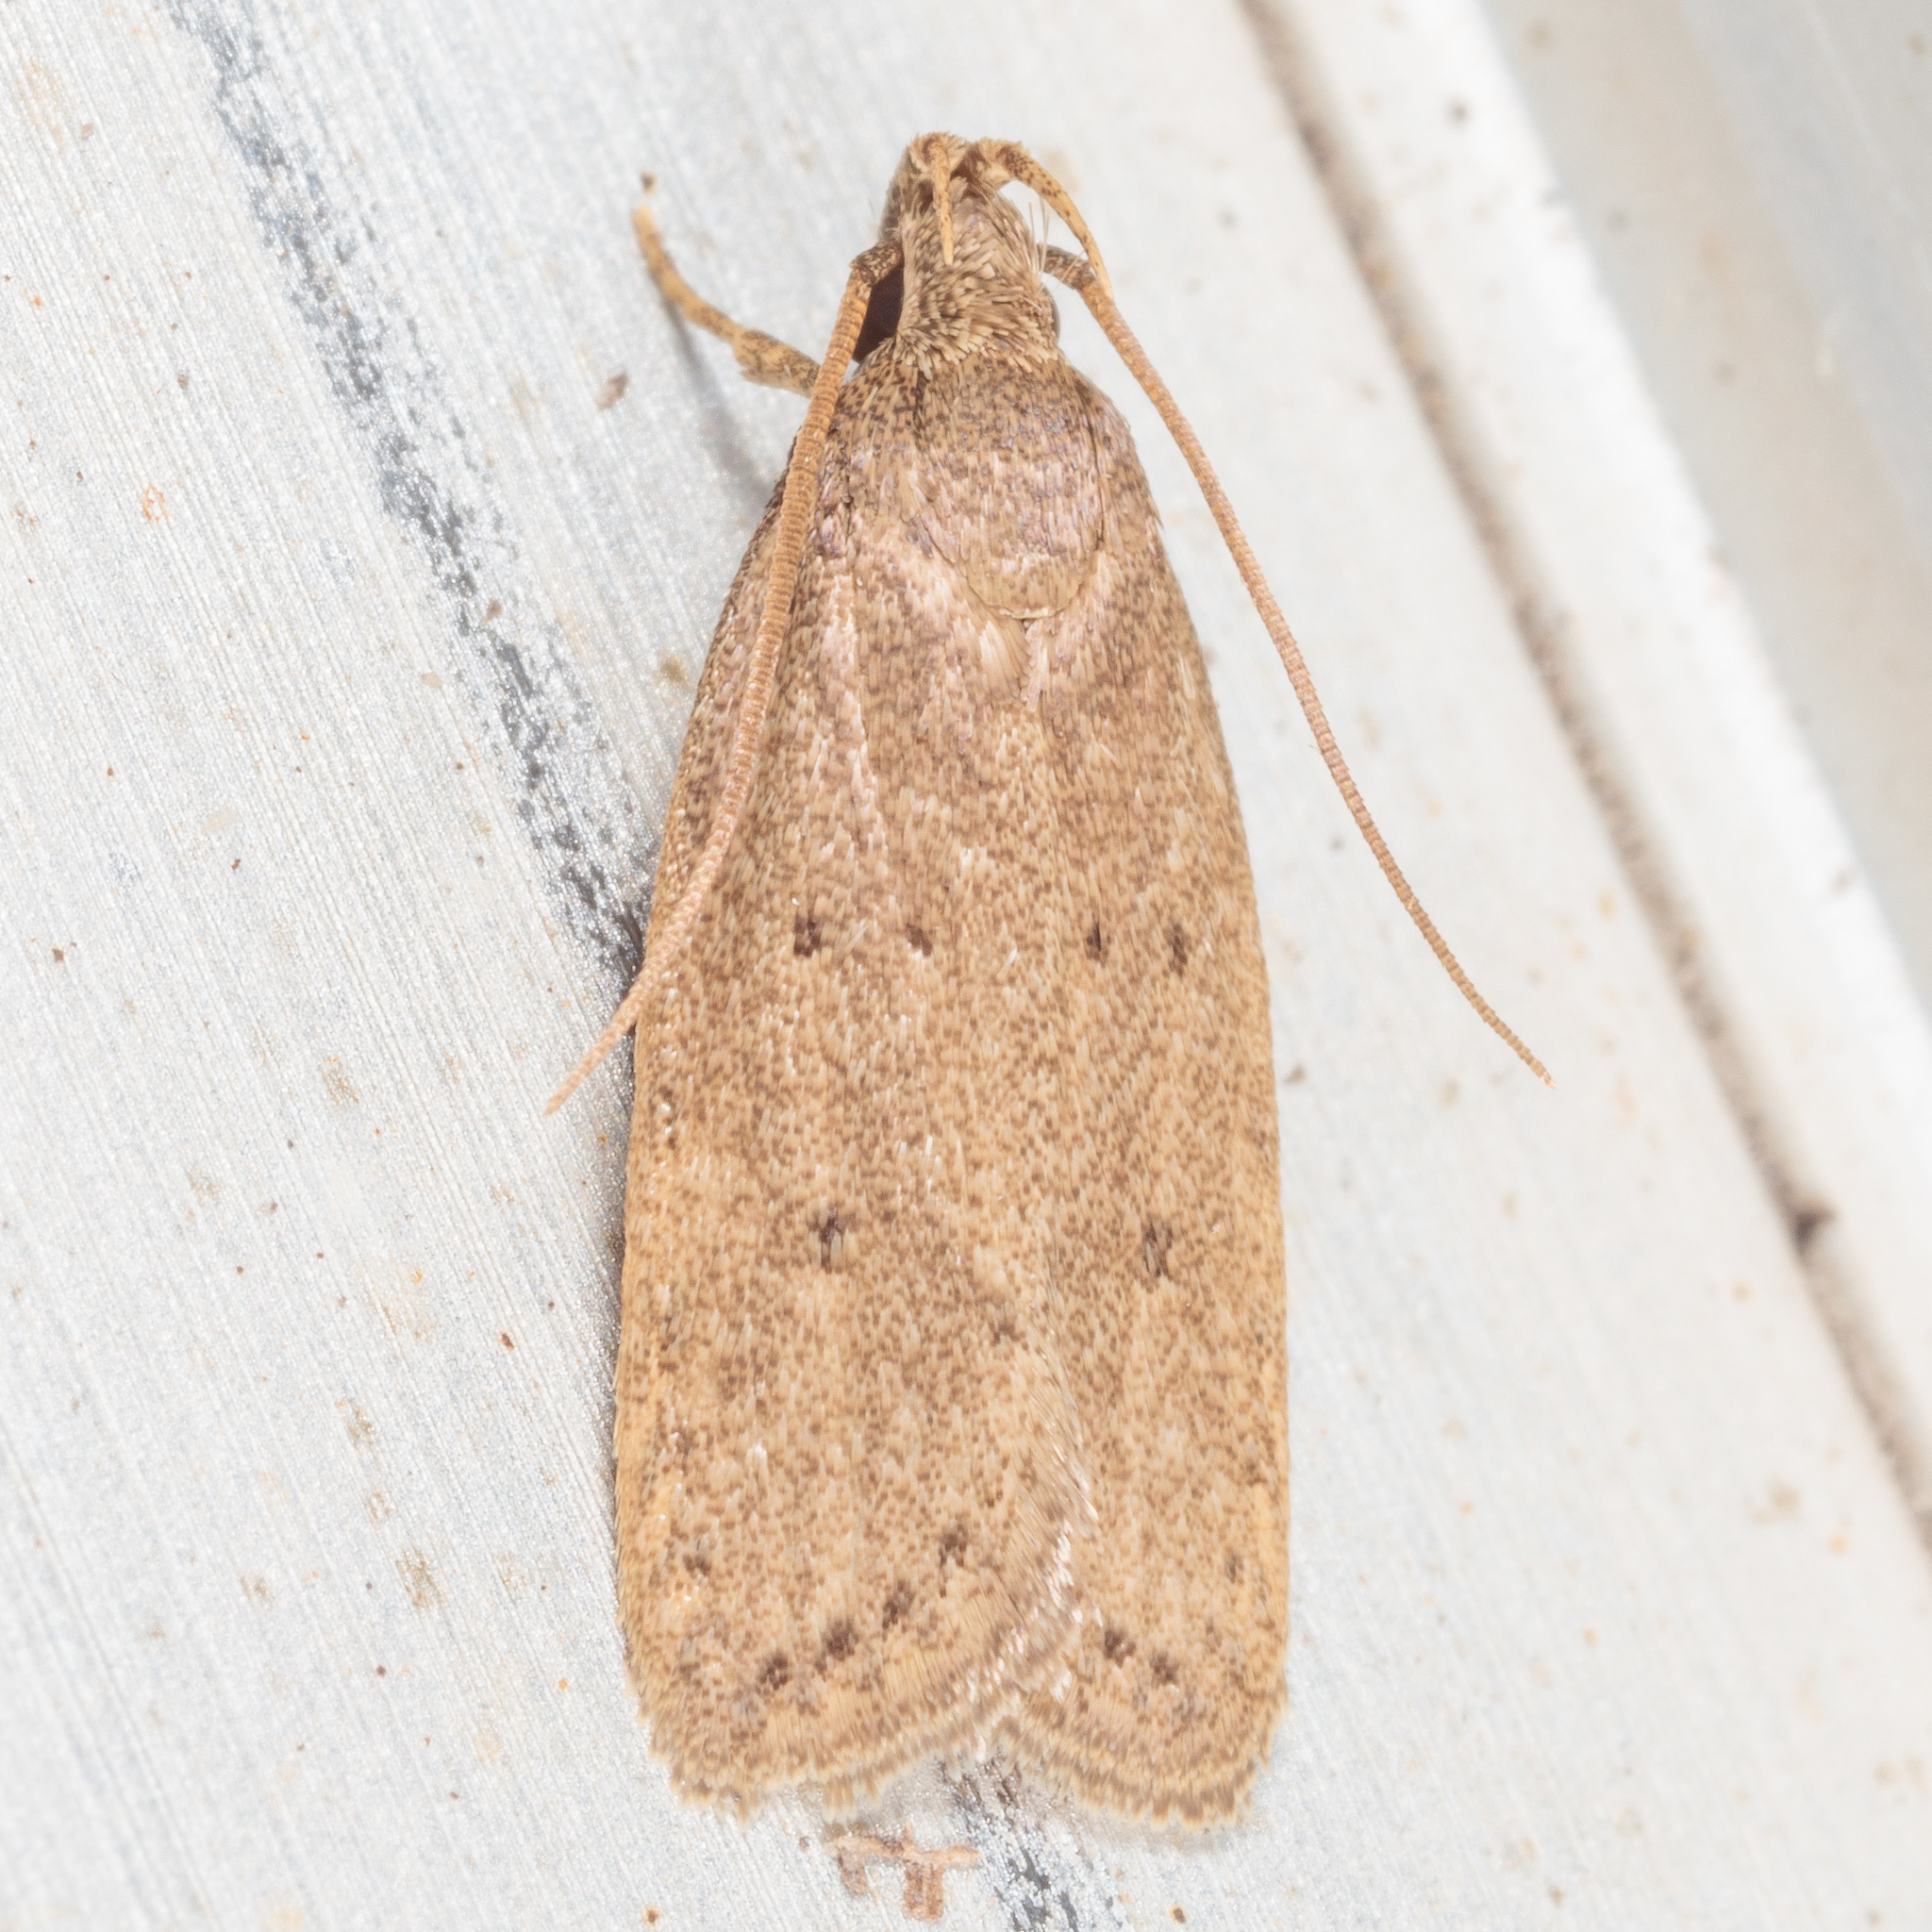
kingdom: Animalia
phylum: Arthropoda
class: Insecta
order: Lepidoptera
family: Autostichidae
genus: Autosticha
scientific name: Autosticha kyotensis
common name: Kyoto moth
